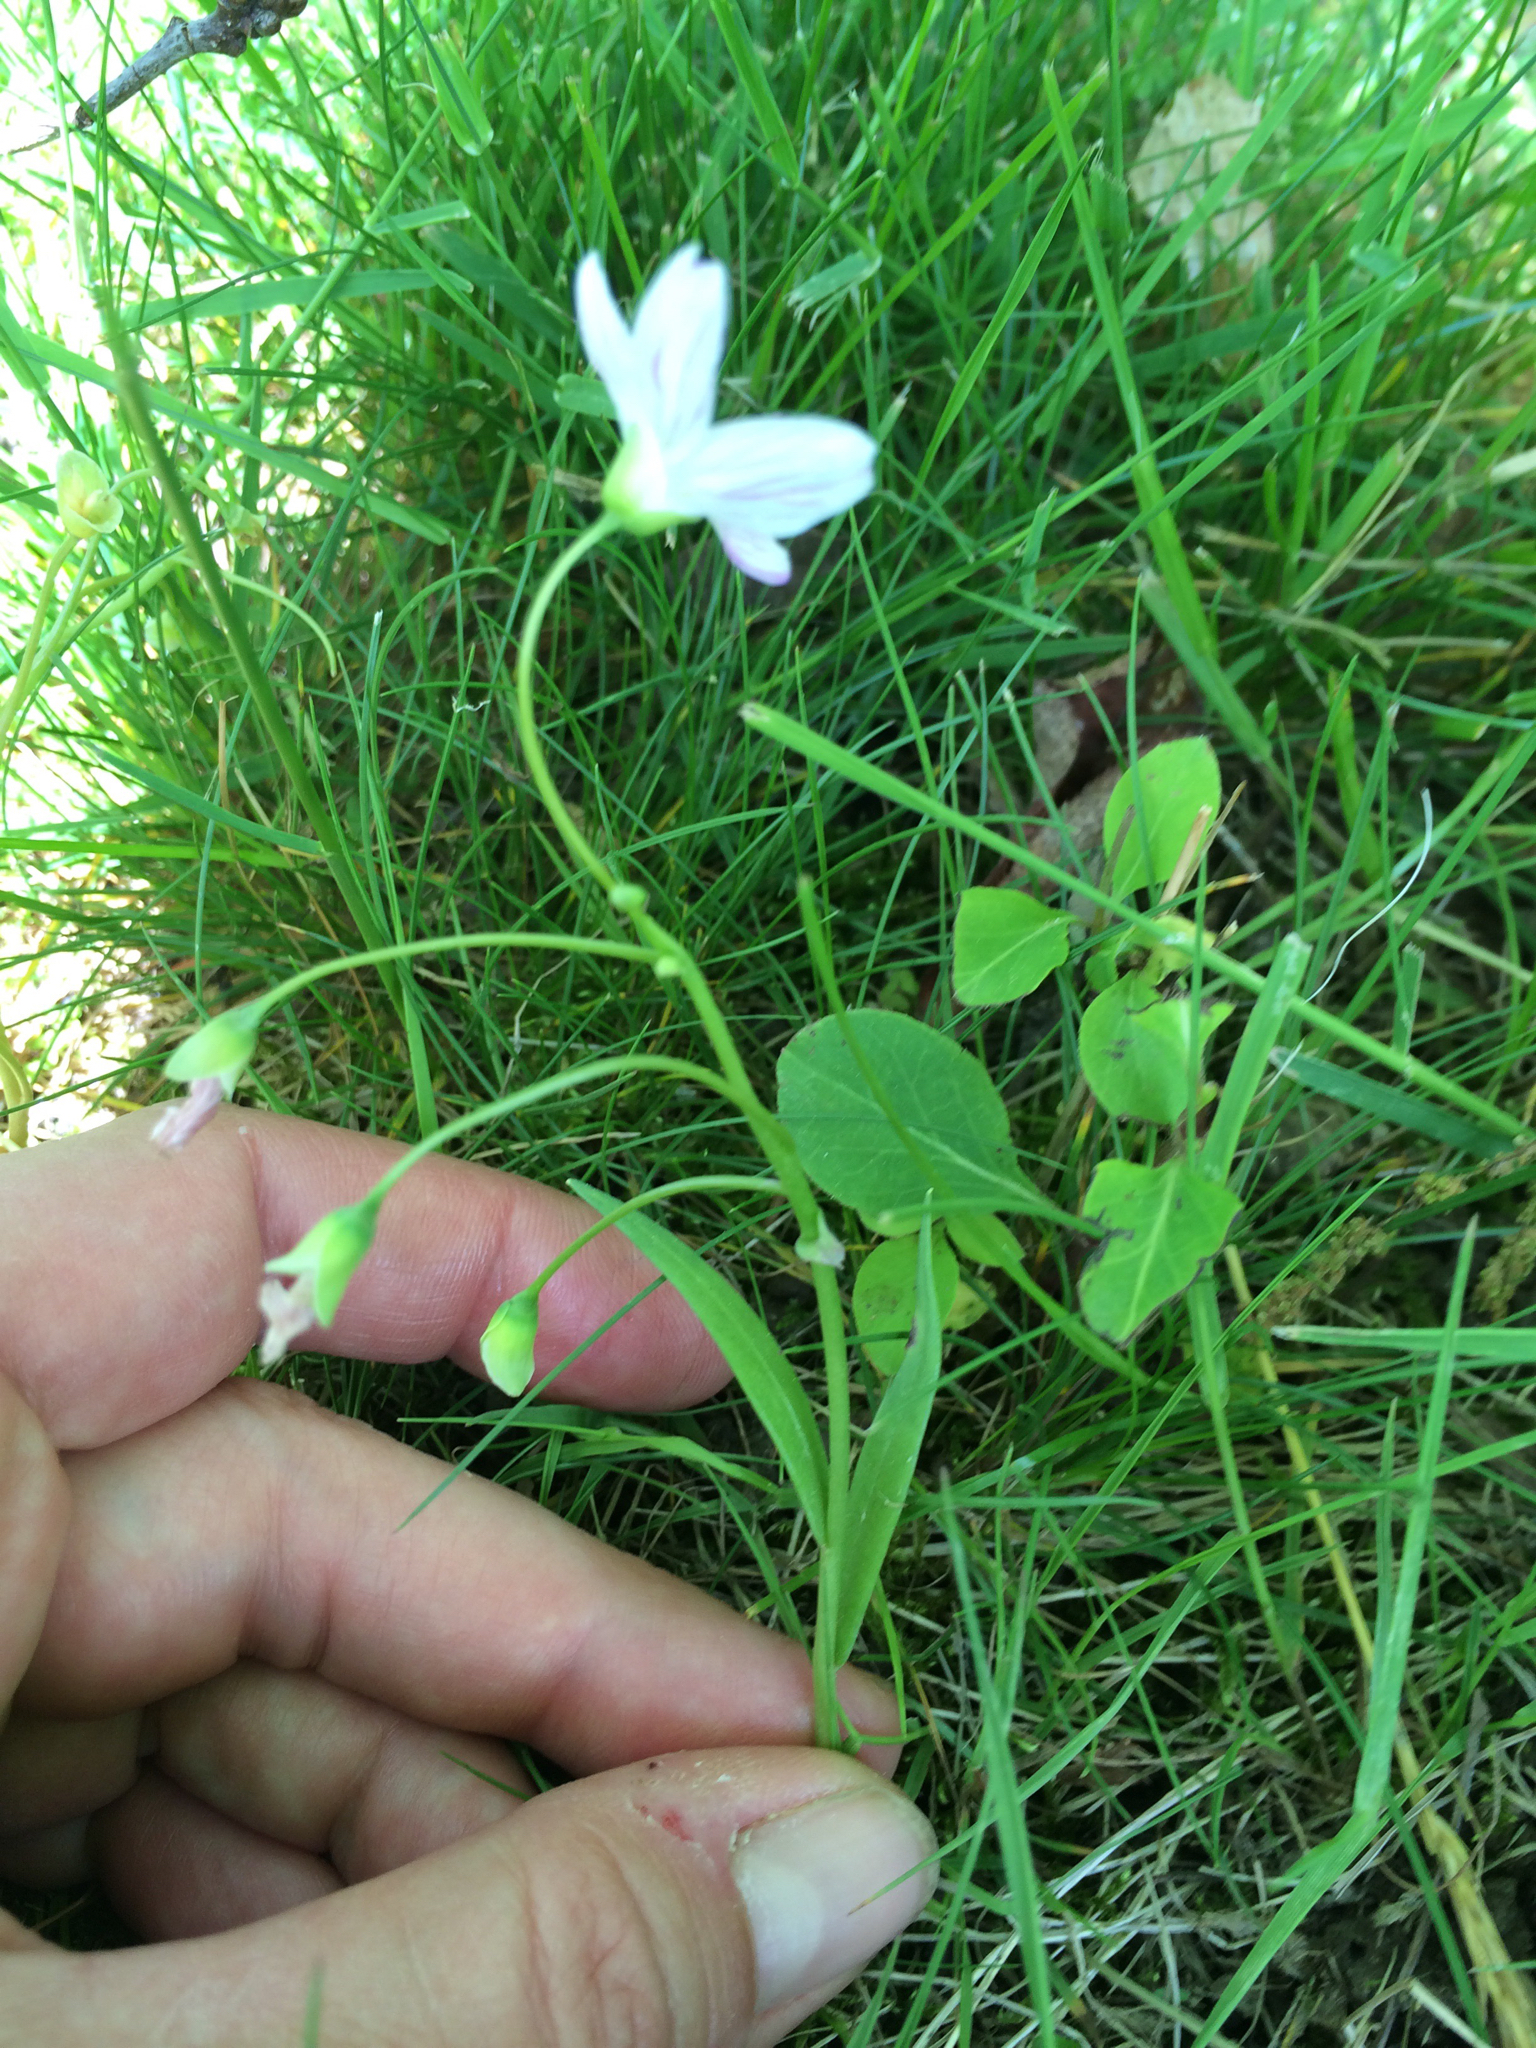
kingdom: Plantae
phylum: Tracheophyta
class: Magnoliopsida
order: Caryophyllales
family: Montiaceae
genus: Claytonia
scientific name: Claytonia virginica
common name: Virginia springbeauty
